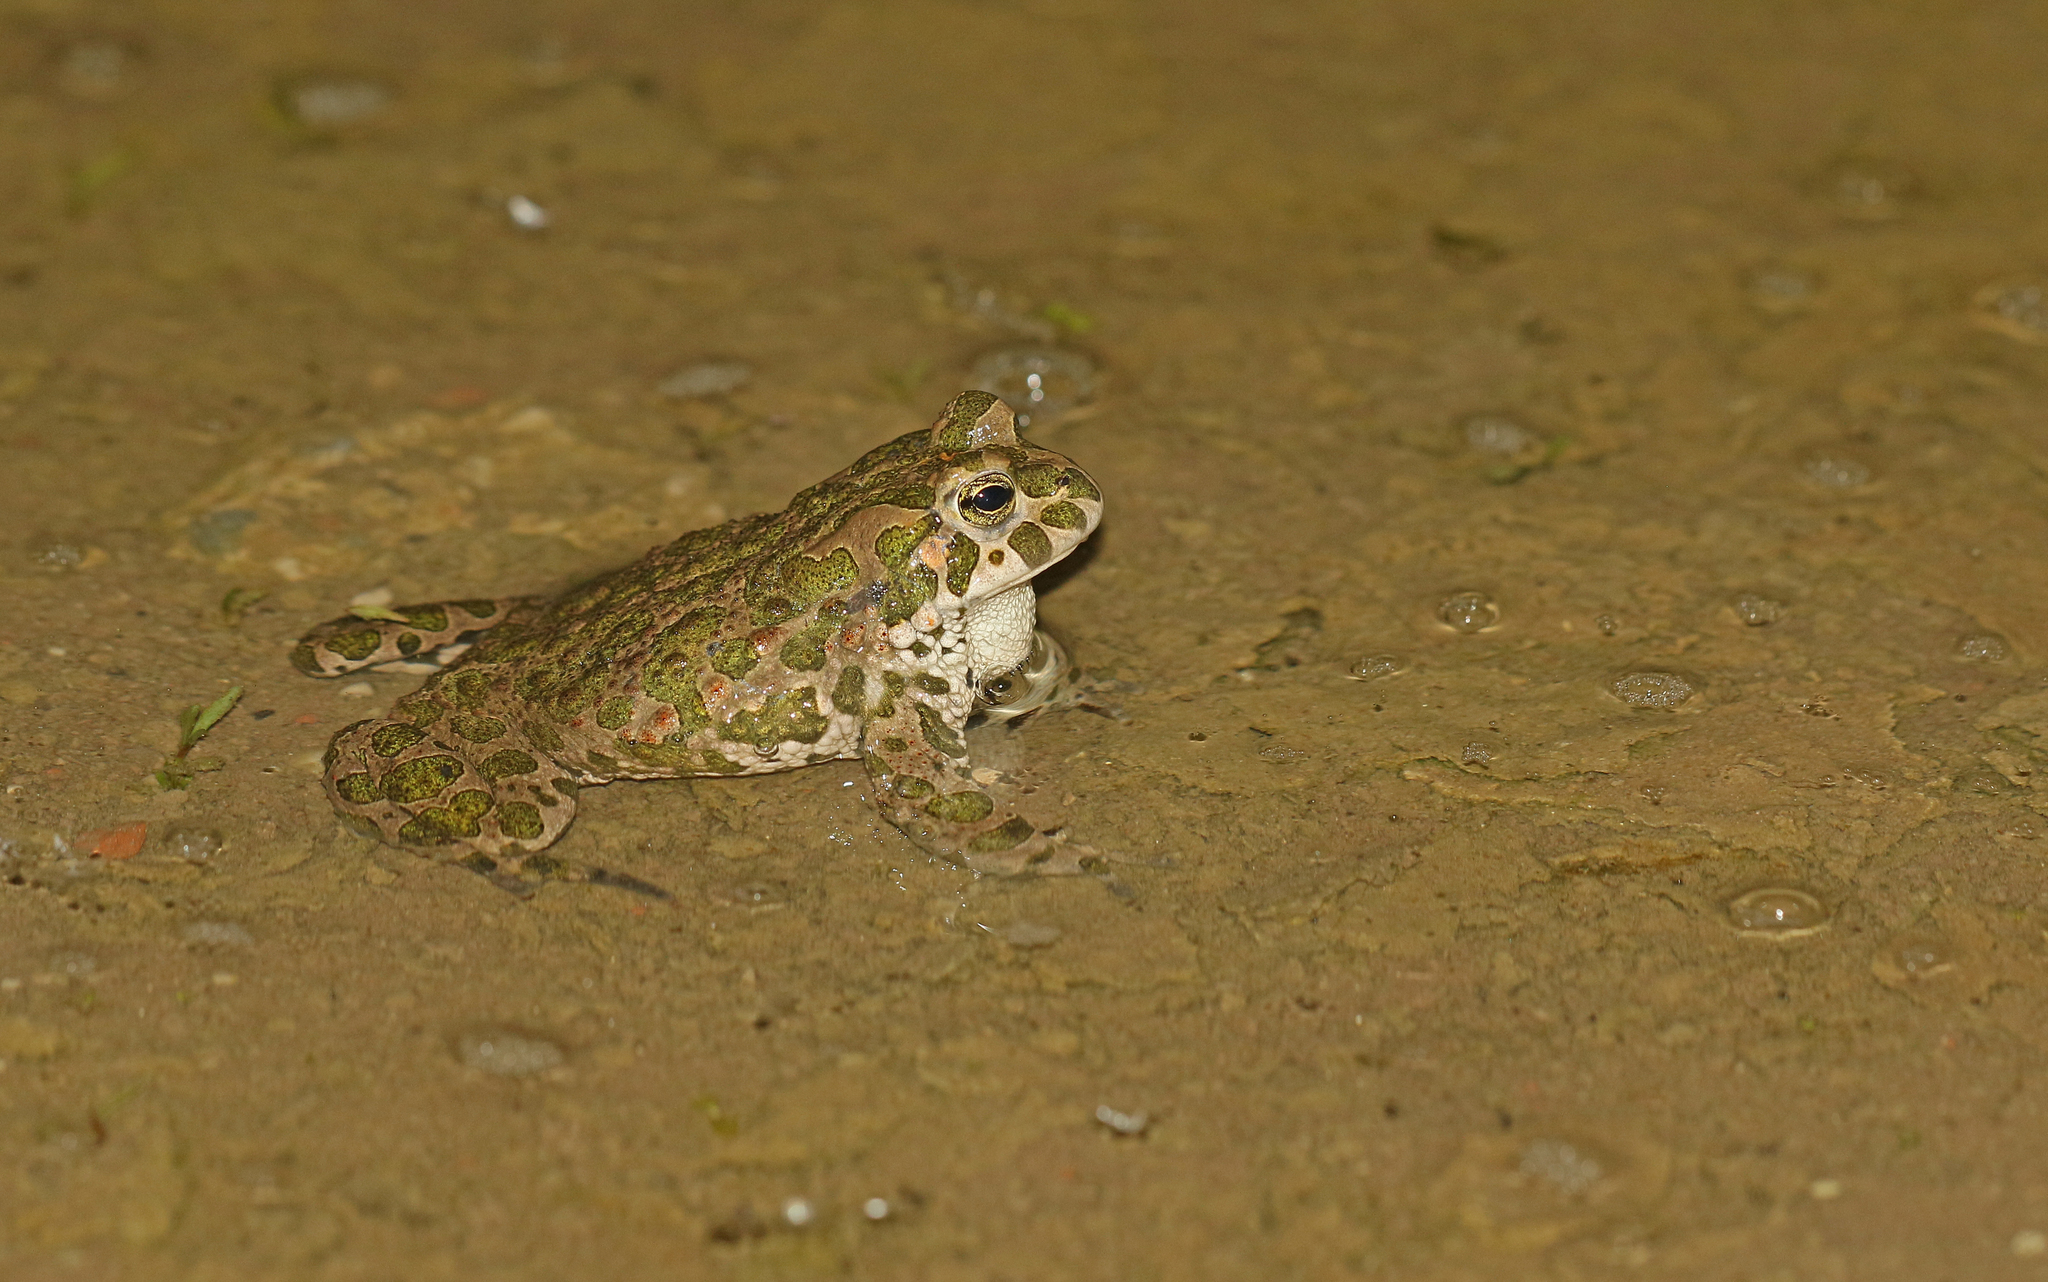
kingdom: Animalia
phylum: Chordata
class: Amphibia
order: Anura
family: Bufonidae
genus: Bufotes
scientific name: Bufotes viridis
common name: European green toad
